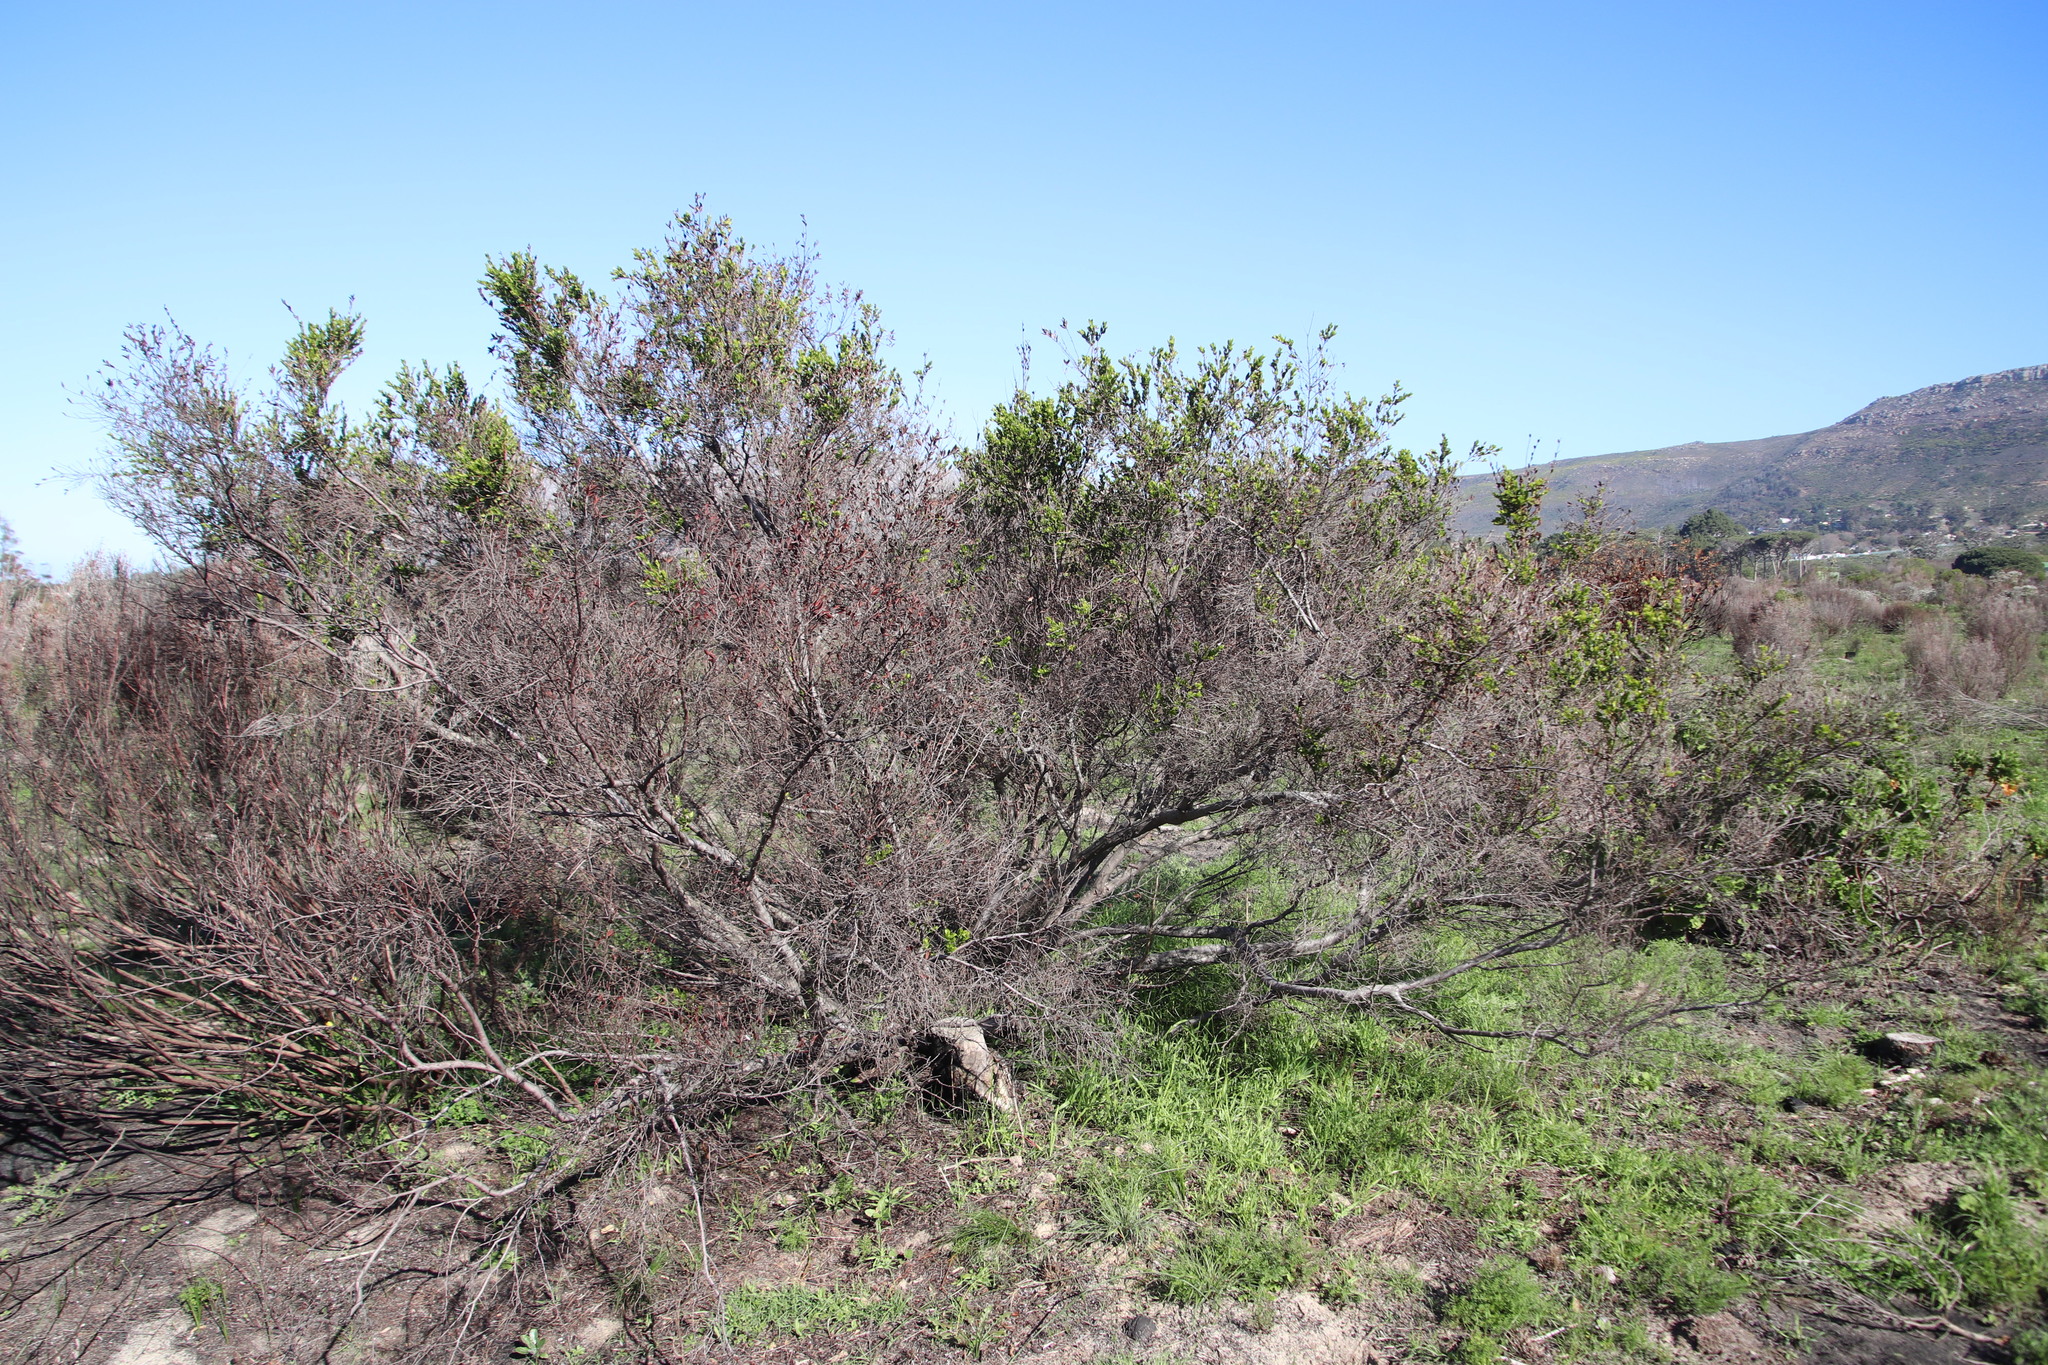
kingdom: Plantae
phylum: Tracheophyta
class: Magnoliopsida
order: Ericales
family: Ebenaceae
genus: Diospyros
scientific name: Diospyros glabra
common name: Fynbos star apple
